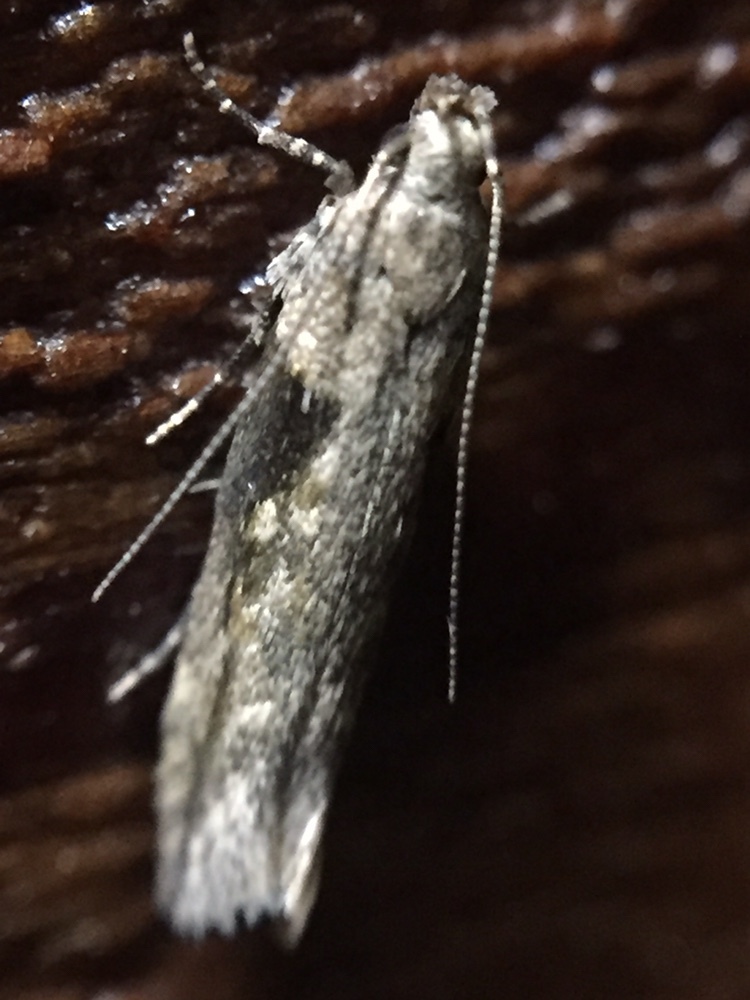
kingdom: Animalia
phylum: Arthropoda
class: Insecta
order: Lepidoptera
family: Gelechiidae
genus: Symmetrischema
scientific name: Symmetrischema tangolias
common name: Moth
